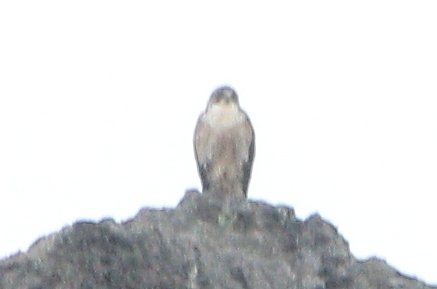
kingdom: Animalia
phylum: Chordata
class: Aves
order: Accipitriformes
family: Accipitridae
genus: Buteo
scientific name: Buteo polyosoma
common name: Variable hawk
